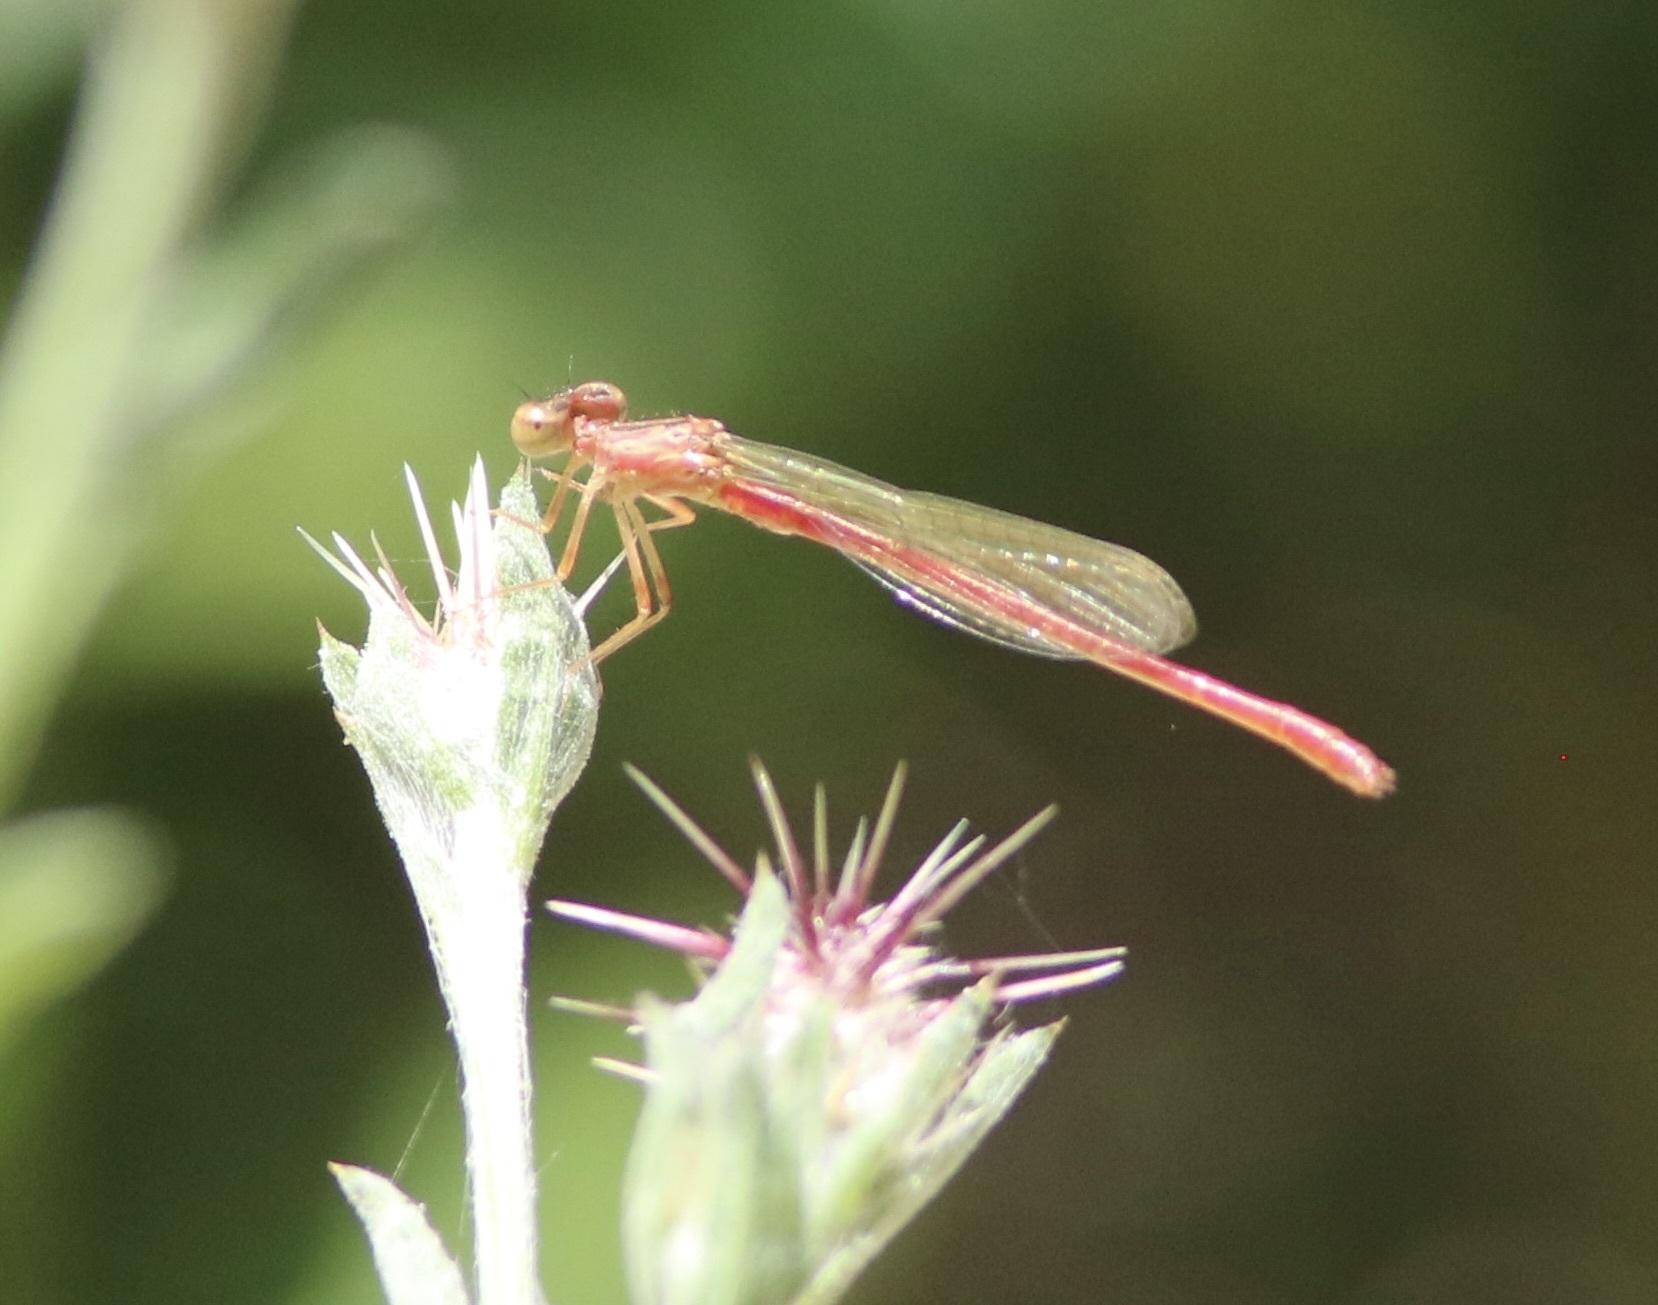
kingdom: Animalia
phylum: Arthropoda
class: Insecta
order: Odonata
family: Coenagrionidae
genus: Telebasis
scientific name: Telebasis salva
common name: Desert firetail
